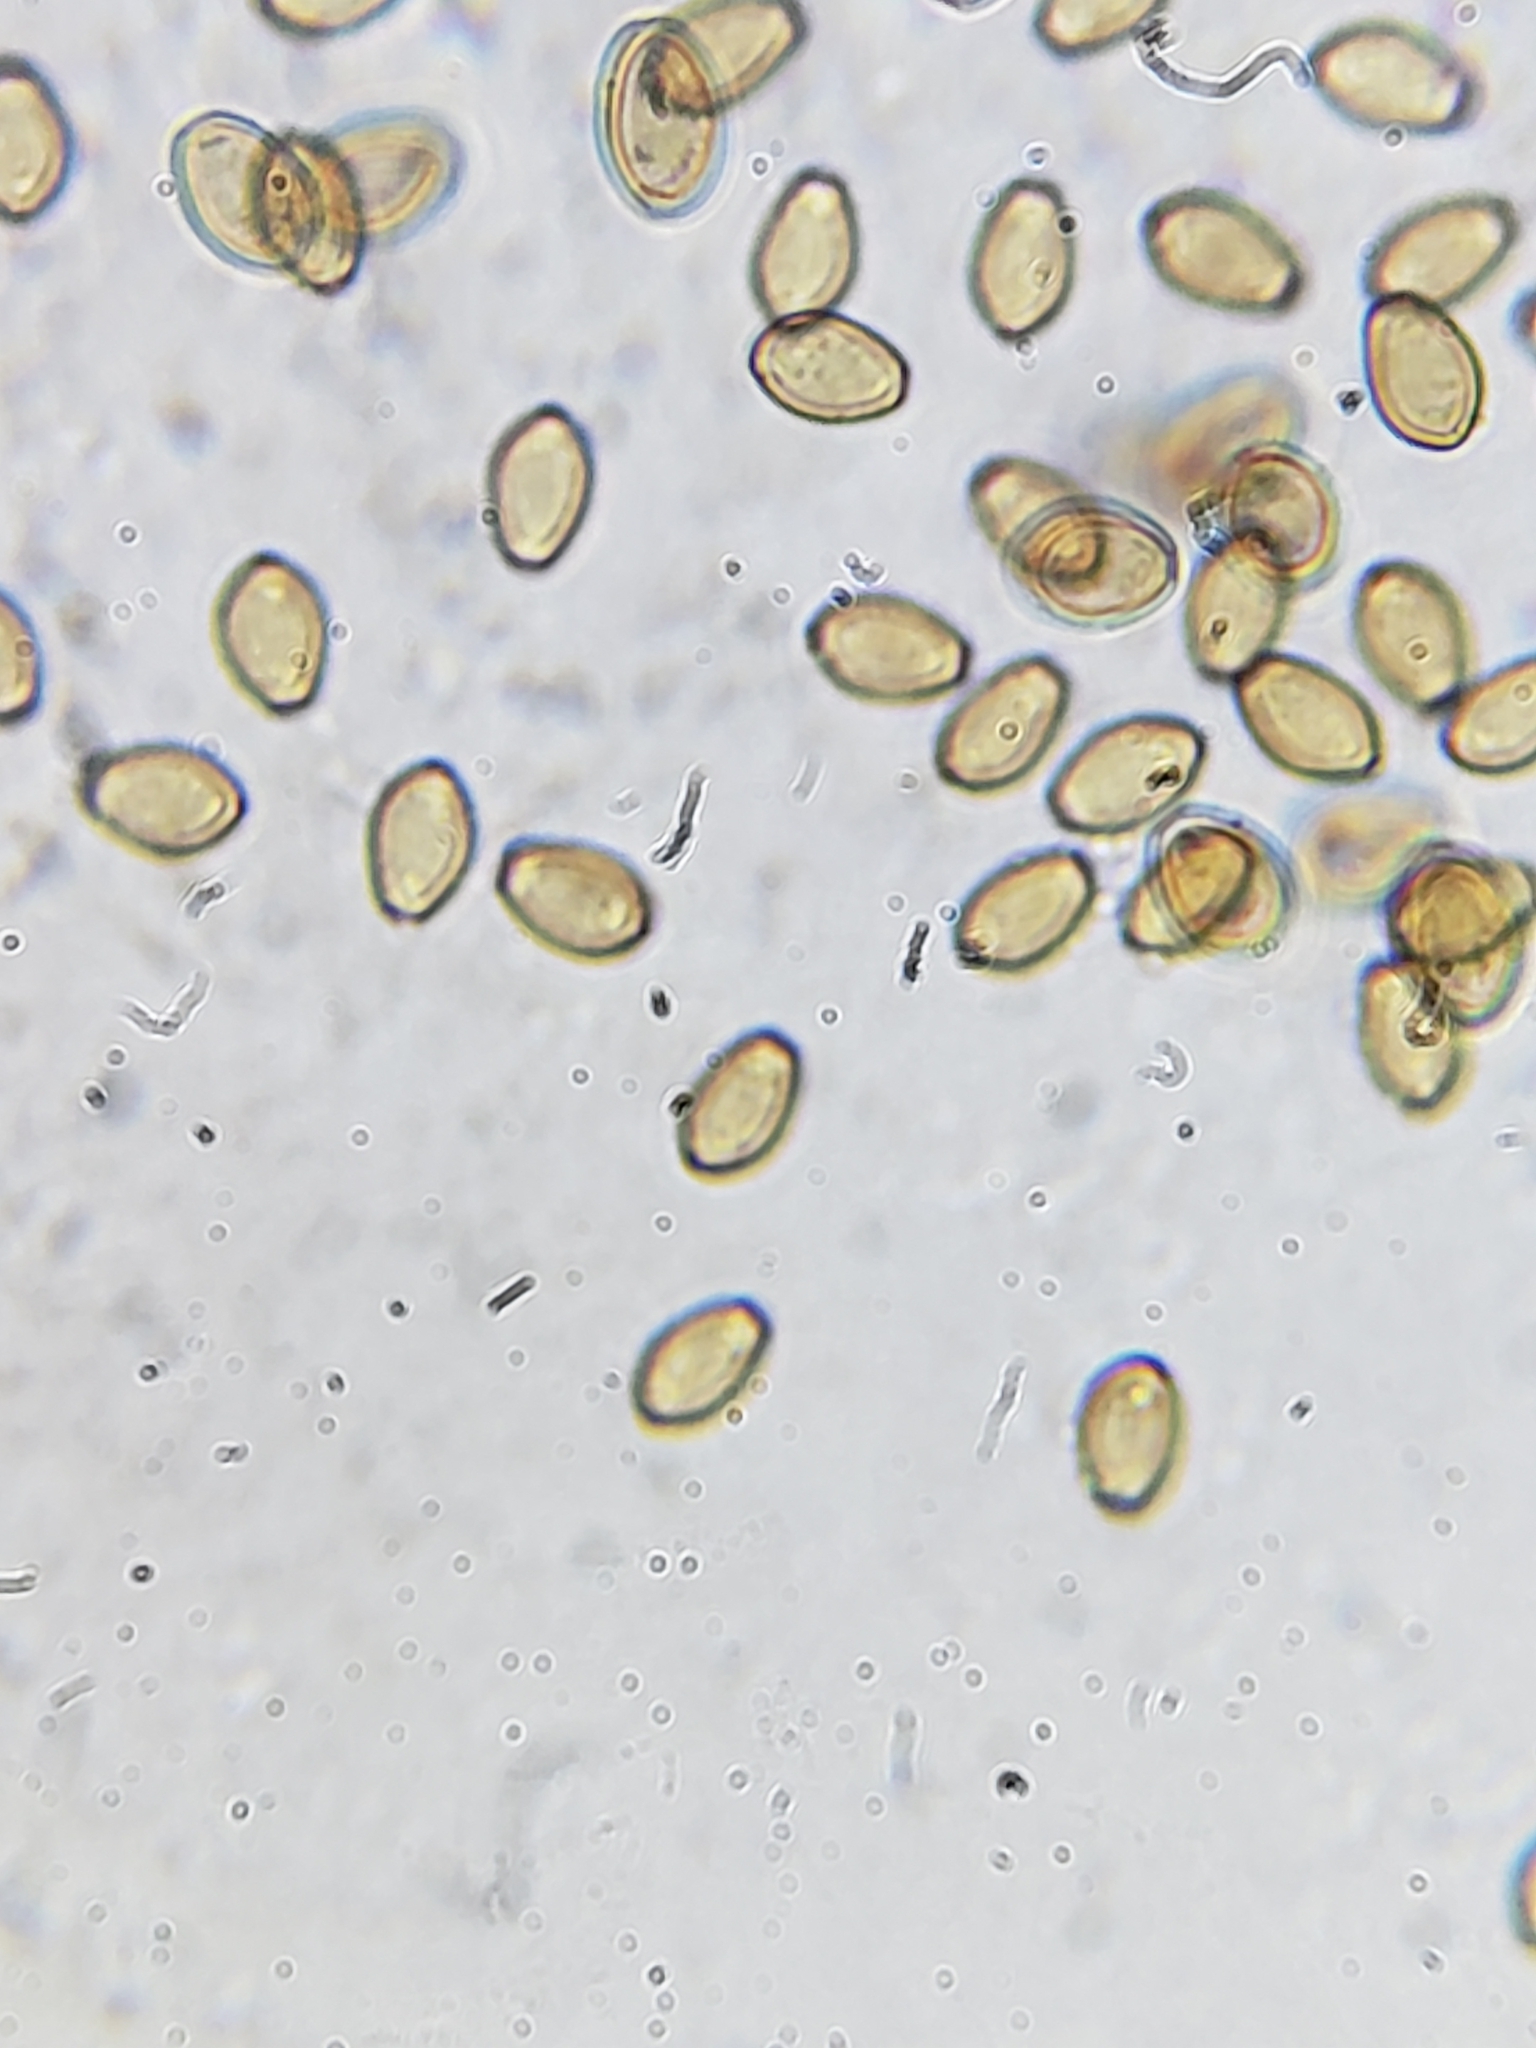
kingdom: Fungi
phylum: Basidiomycota
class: Agaricomycetes
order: Agaricales
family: Strophariaceae
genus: Agrocybe
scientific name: Agrocybe praecox
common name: Spring fieldcap
